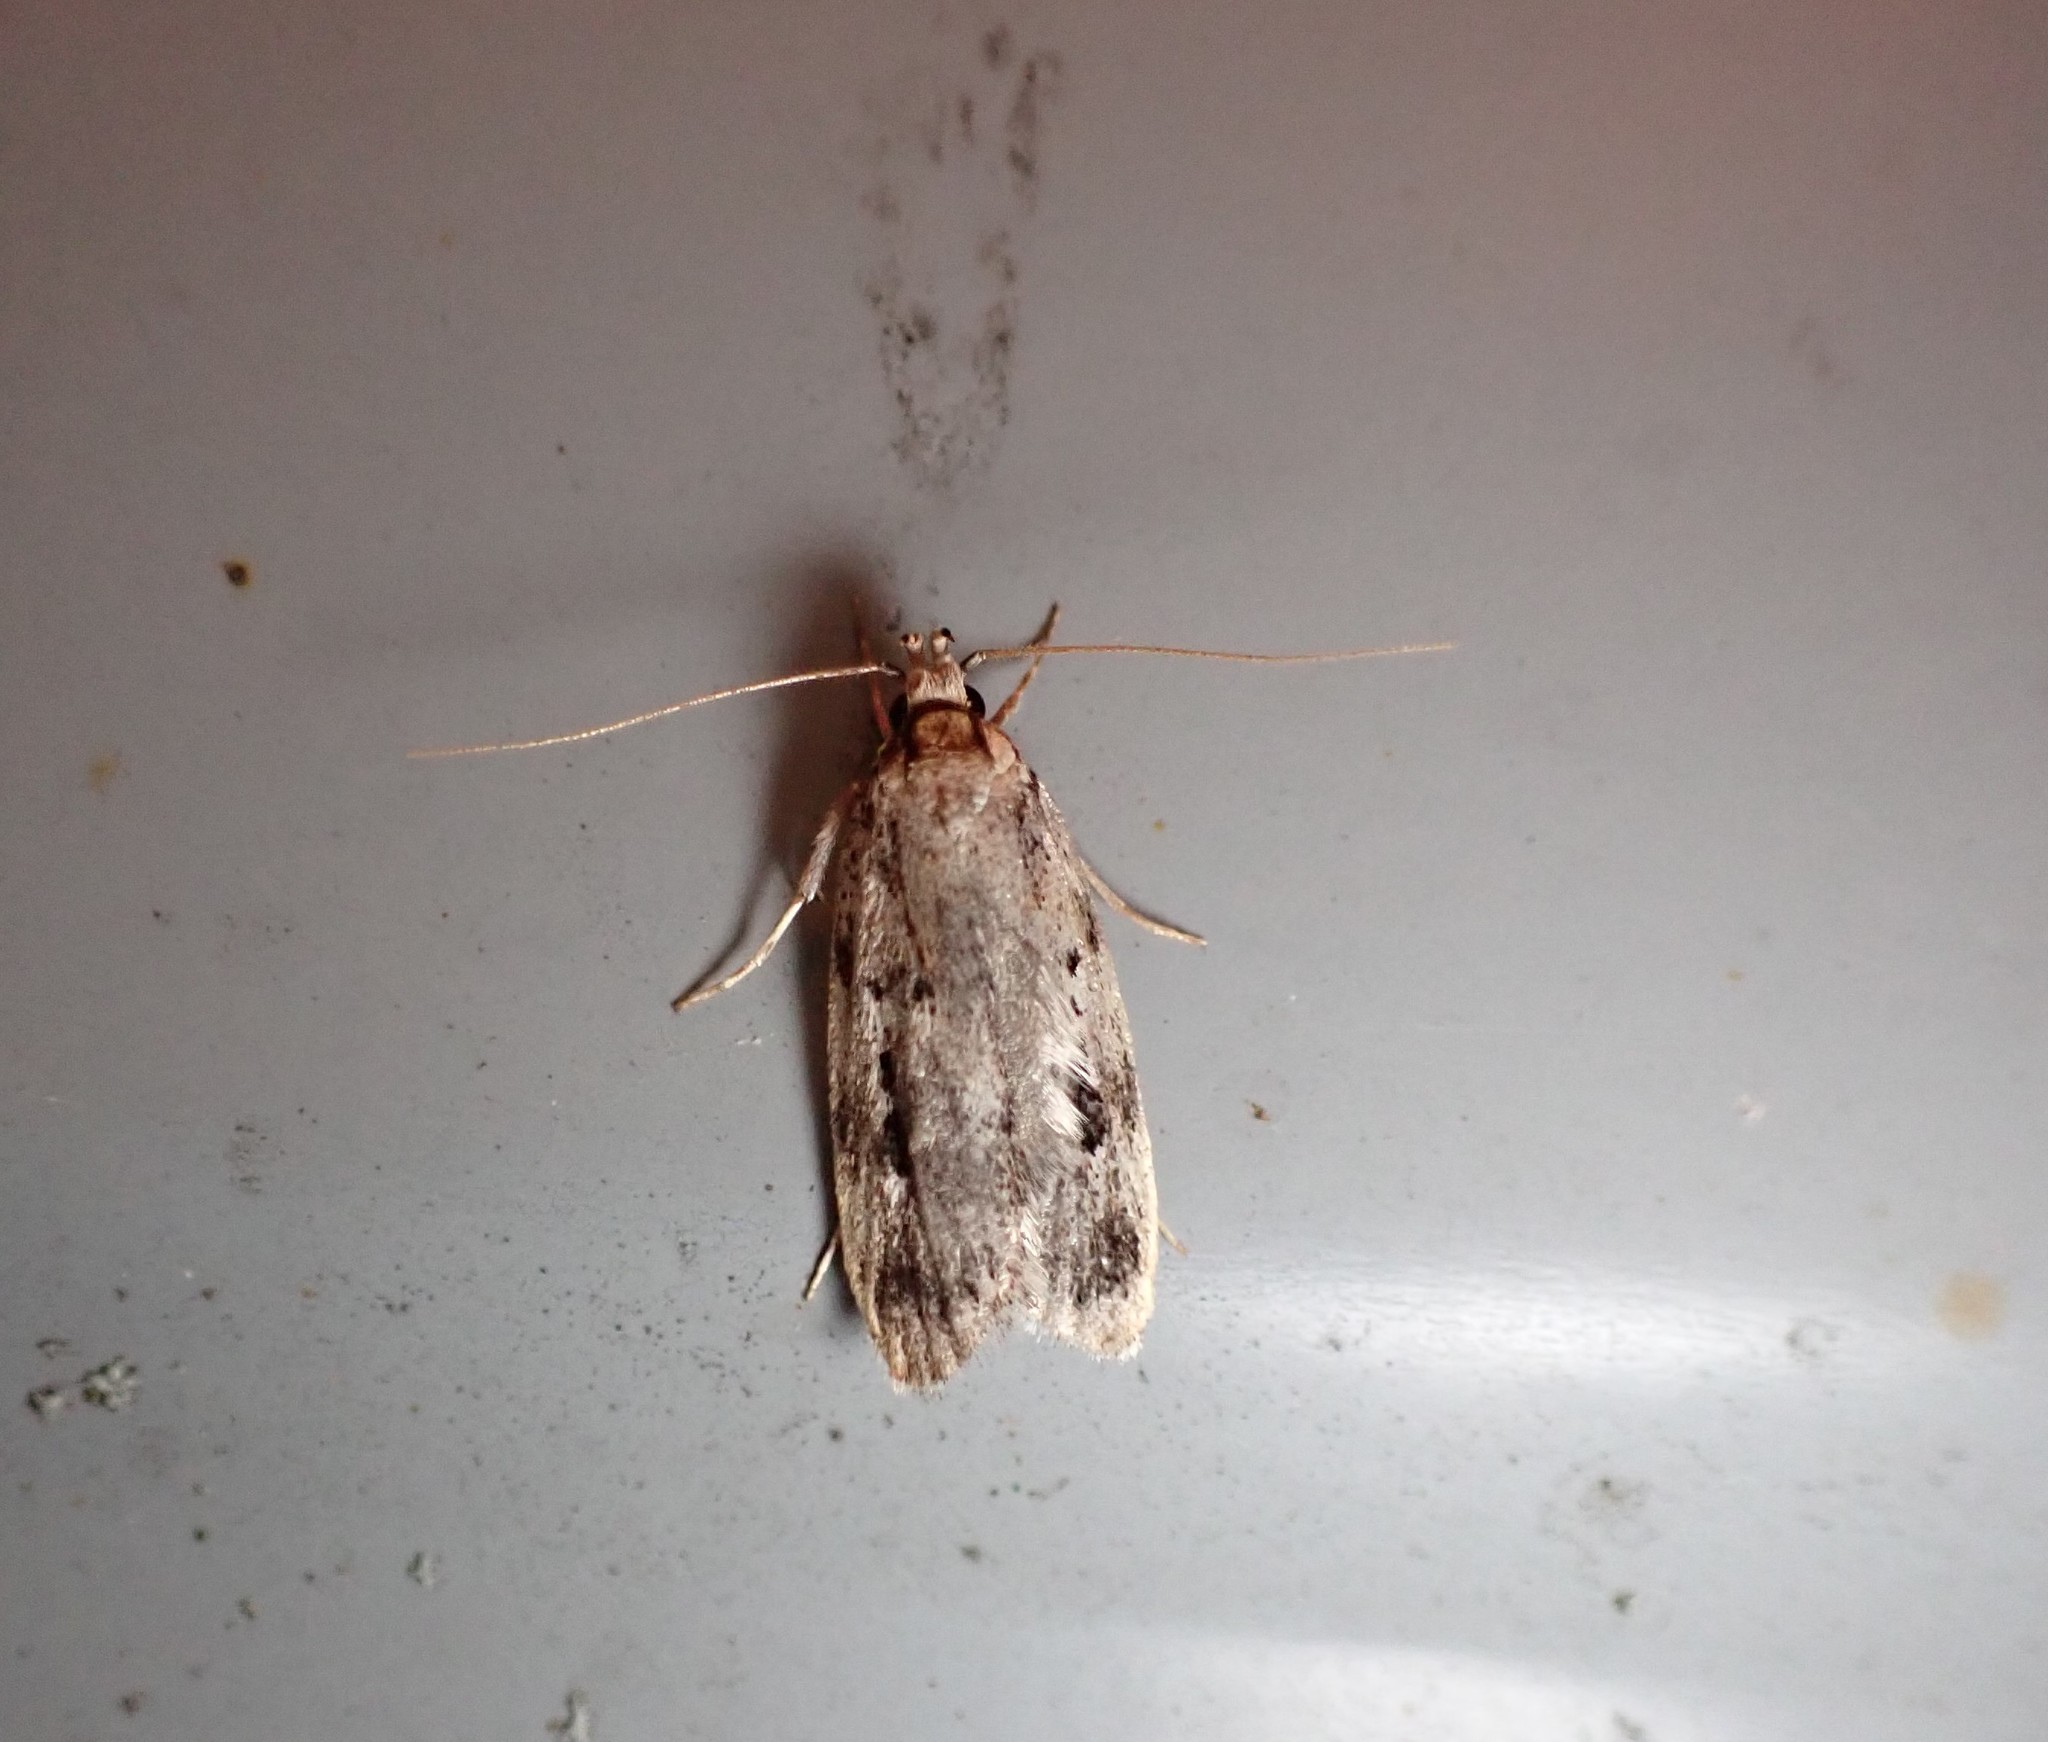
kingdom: Animalia
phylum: Arthropoda
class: Insecta
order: Lepidoptera
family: Oecophoridae
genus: Barea
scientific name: Barea exarcha
